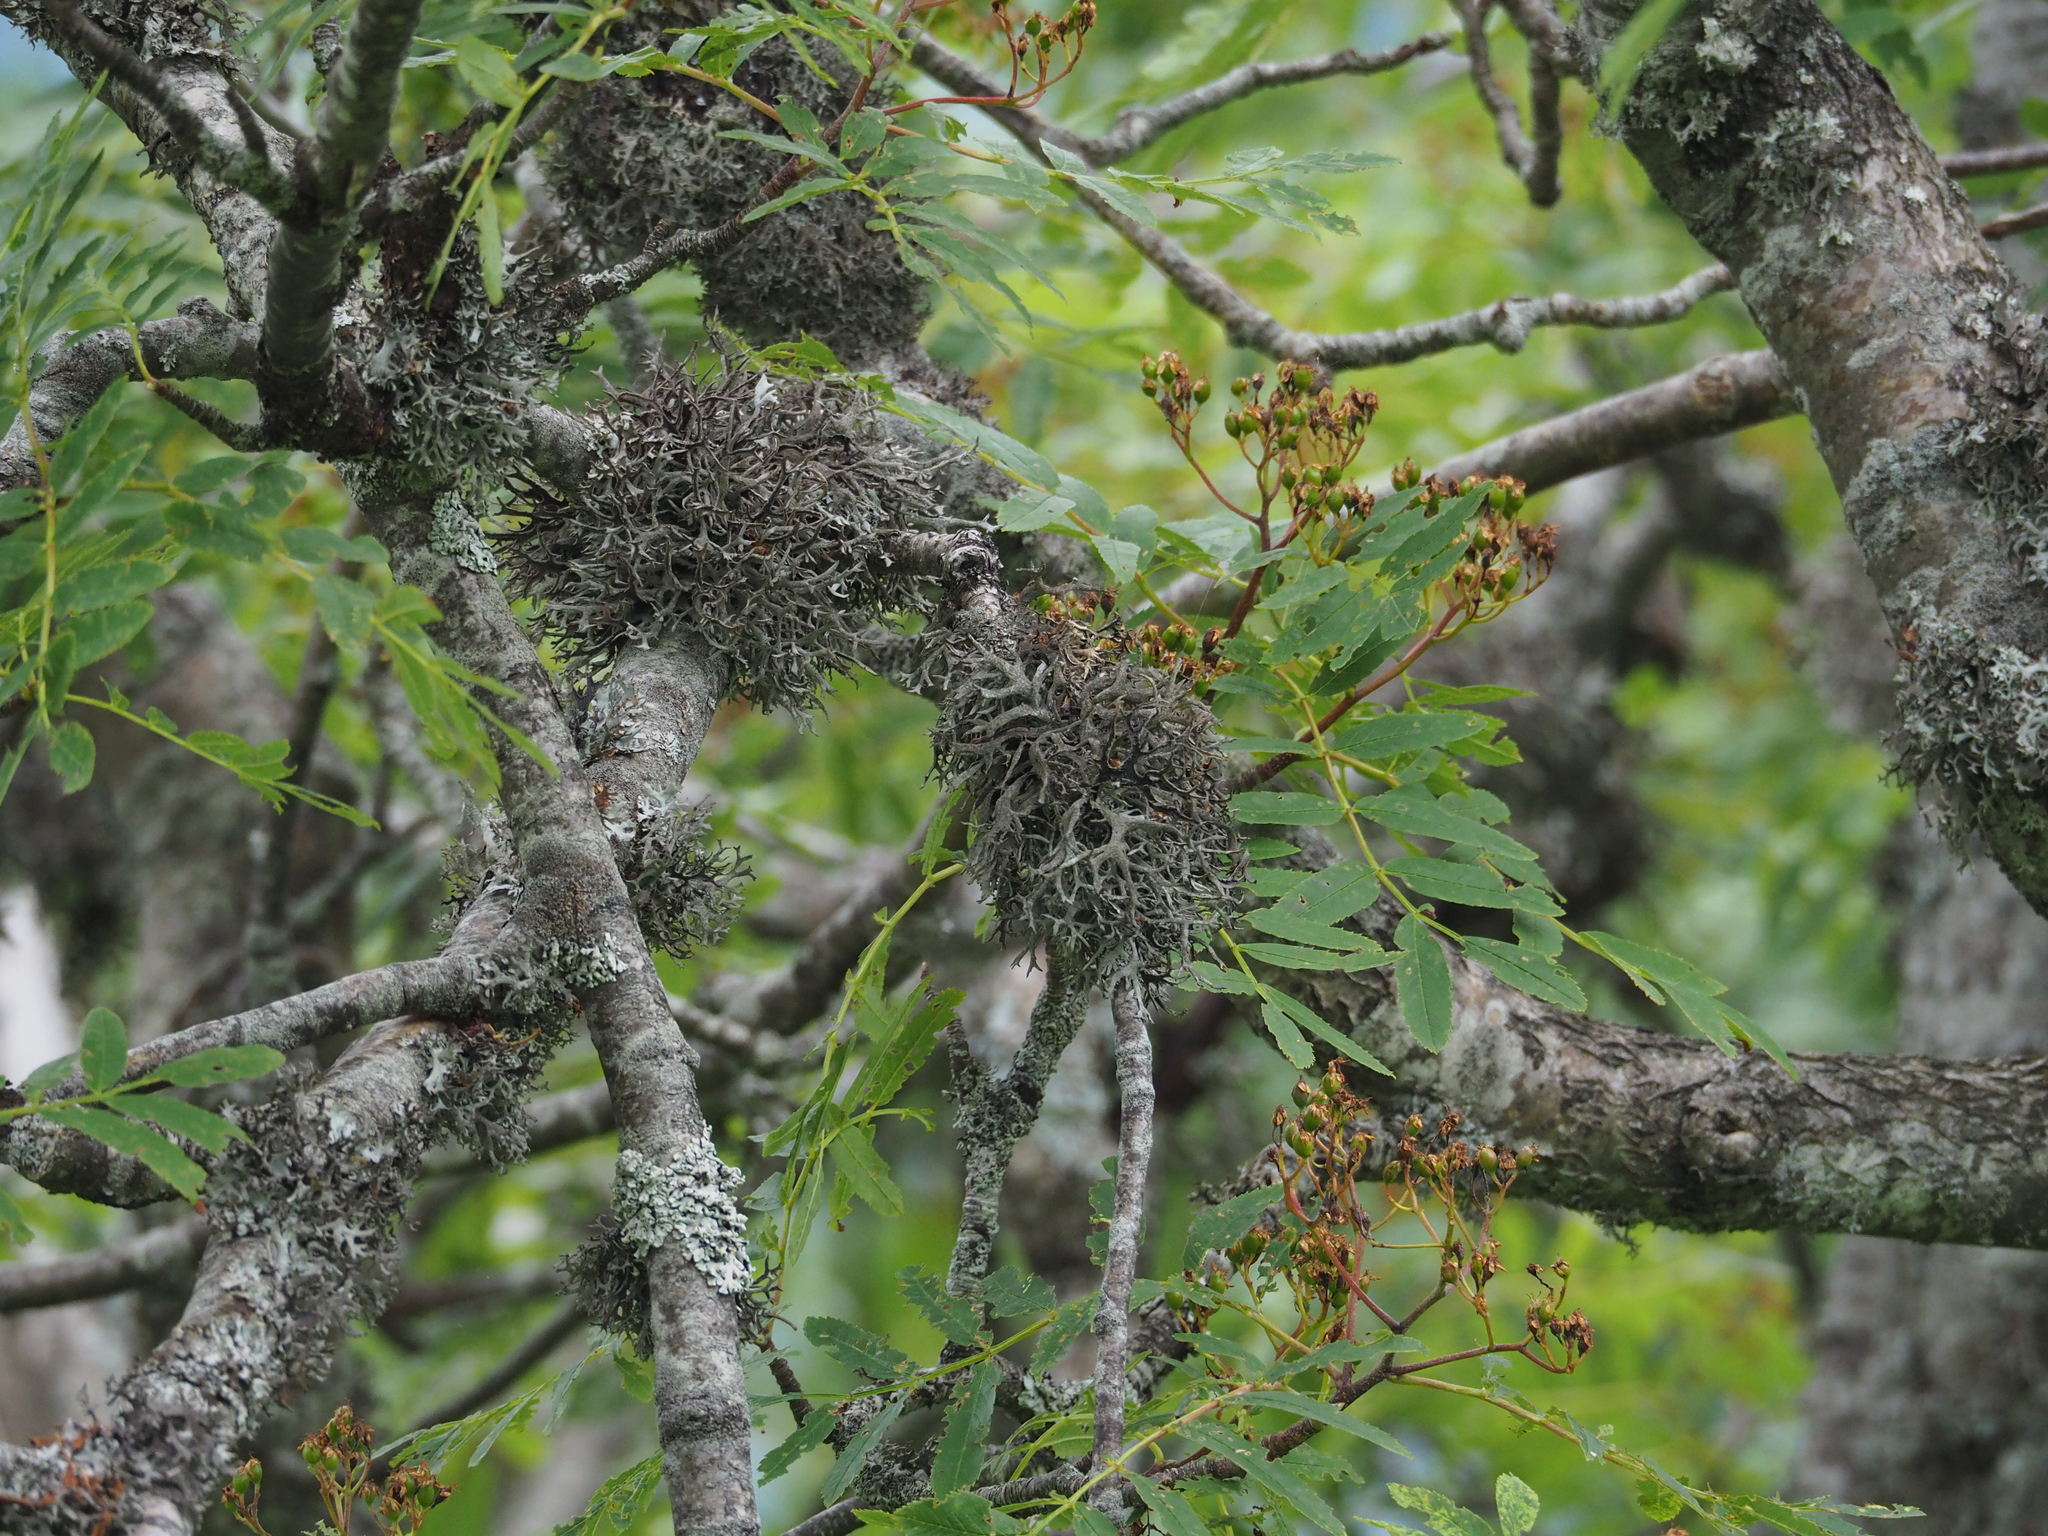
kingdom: Fungi
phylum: Ascomycota
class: Lecanoromycetes
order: Lecanorales
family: Parmeliaceae
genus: Pseudevernia
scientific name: Pseudevernia furfuracea
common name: Tree moss
